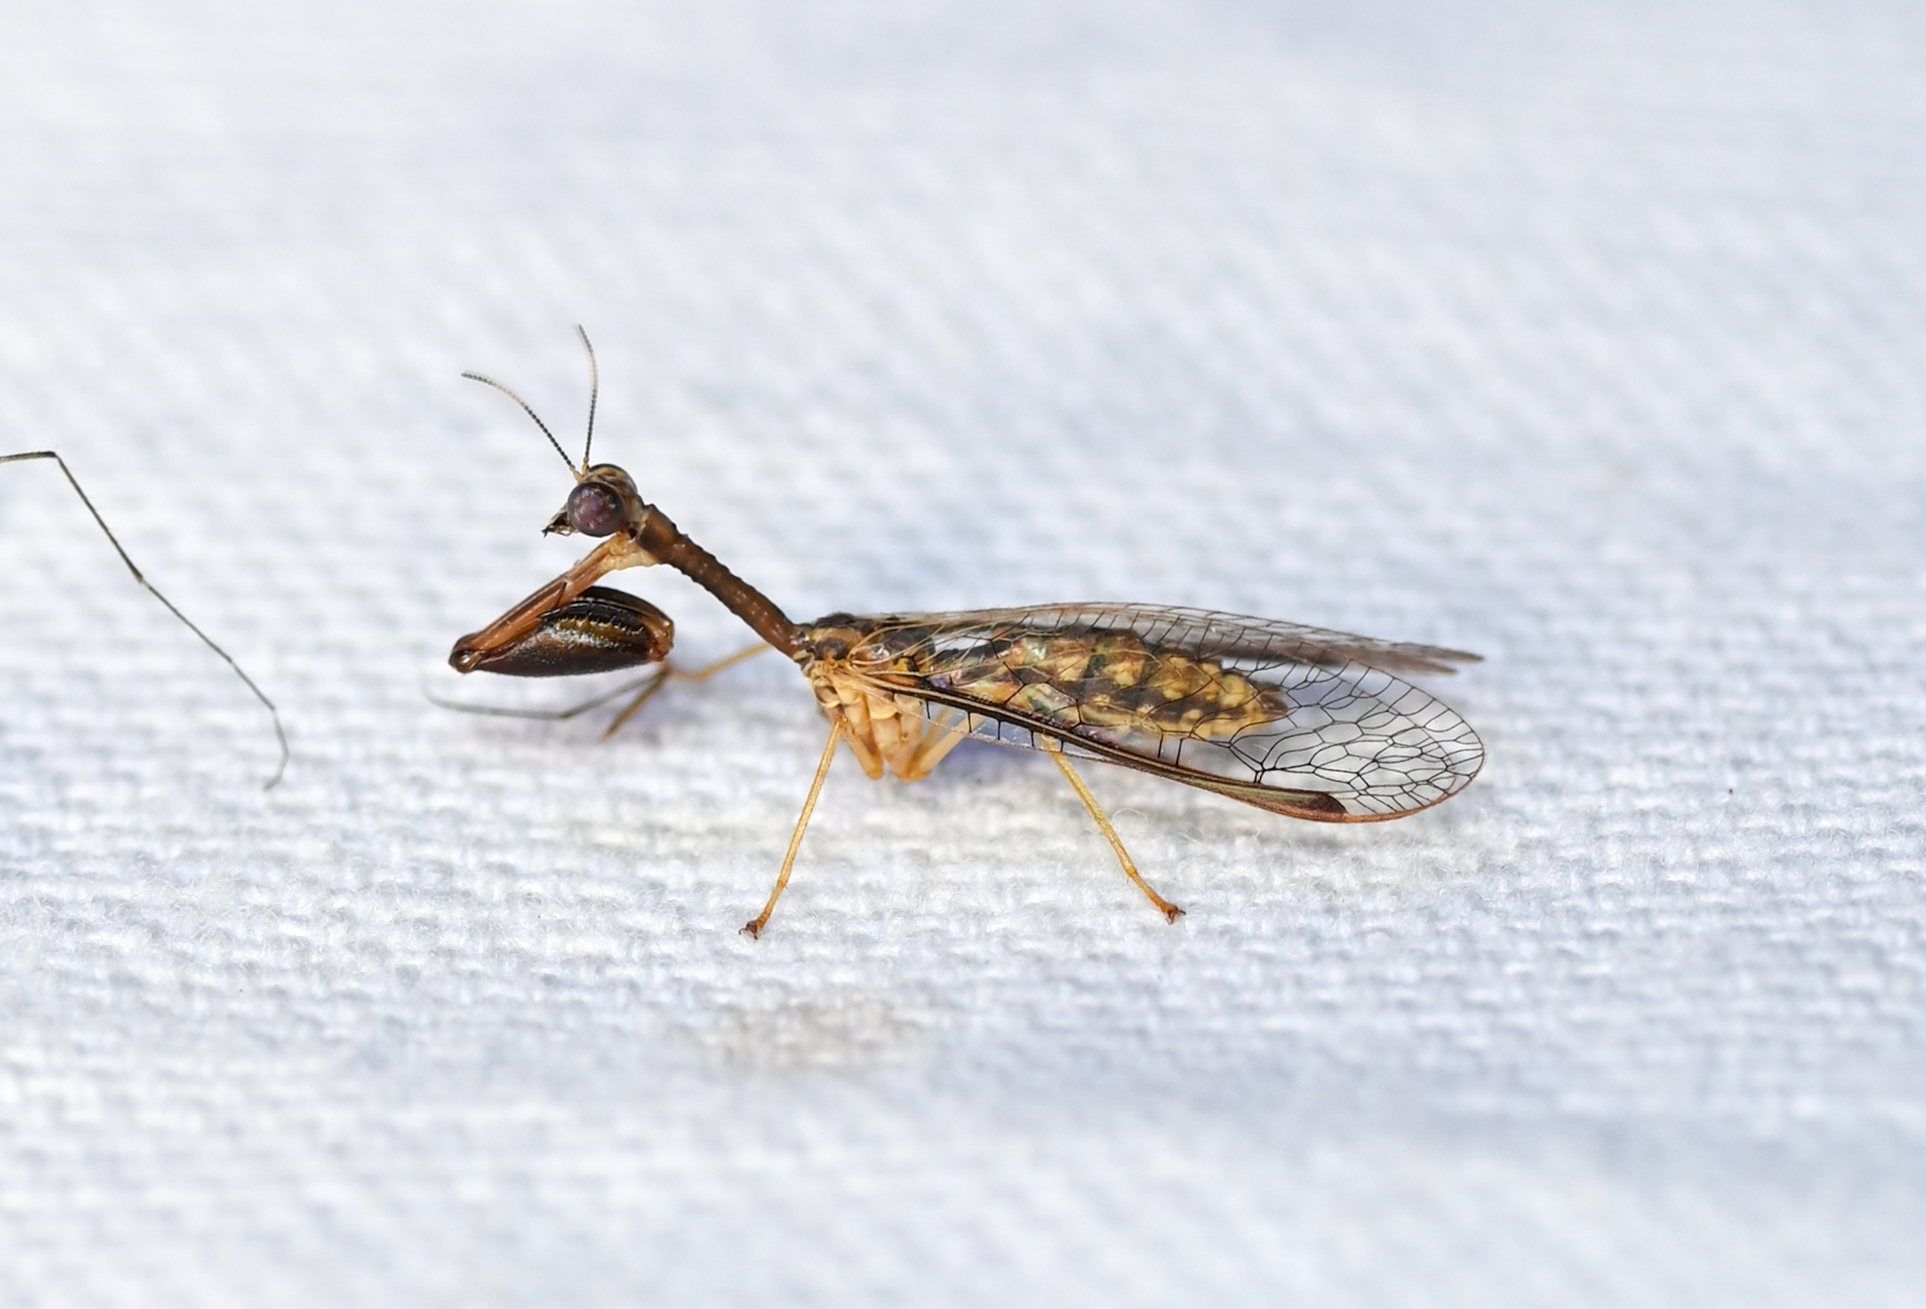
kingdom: Animalia
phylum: Arthropoda
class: Insecta
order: Neuroptera
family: Mantispidae
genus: Dicromantispa
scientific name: Dicromantispa sayi
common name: Say's mantidfly
